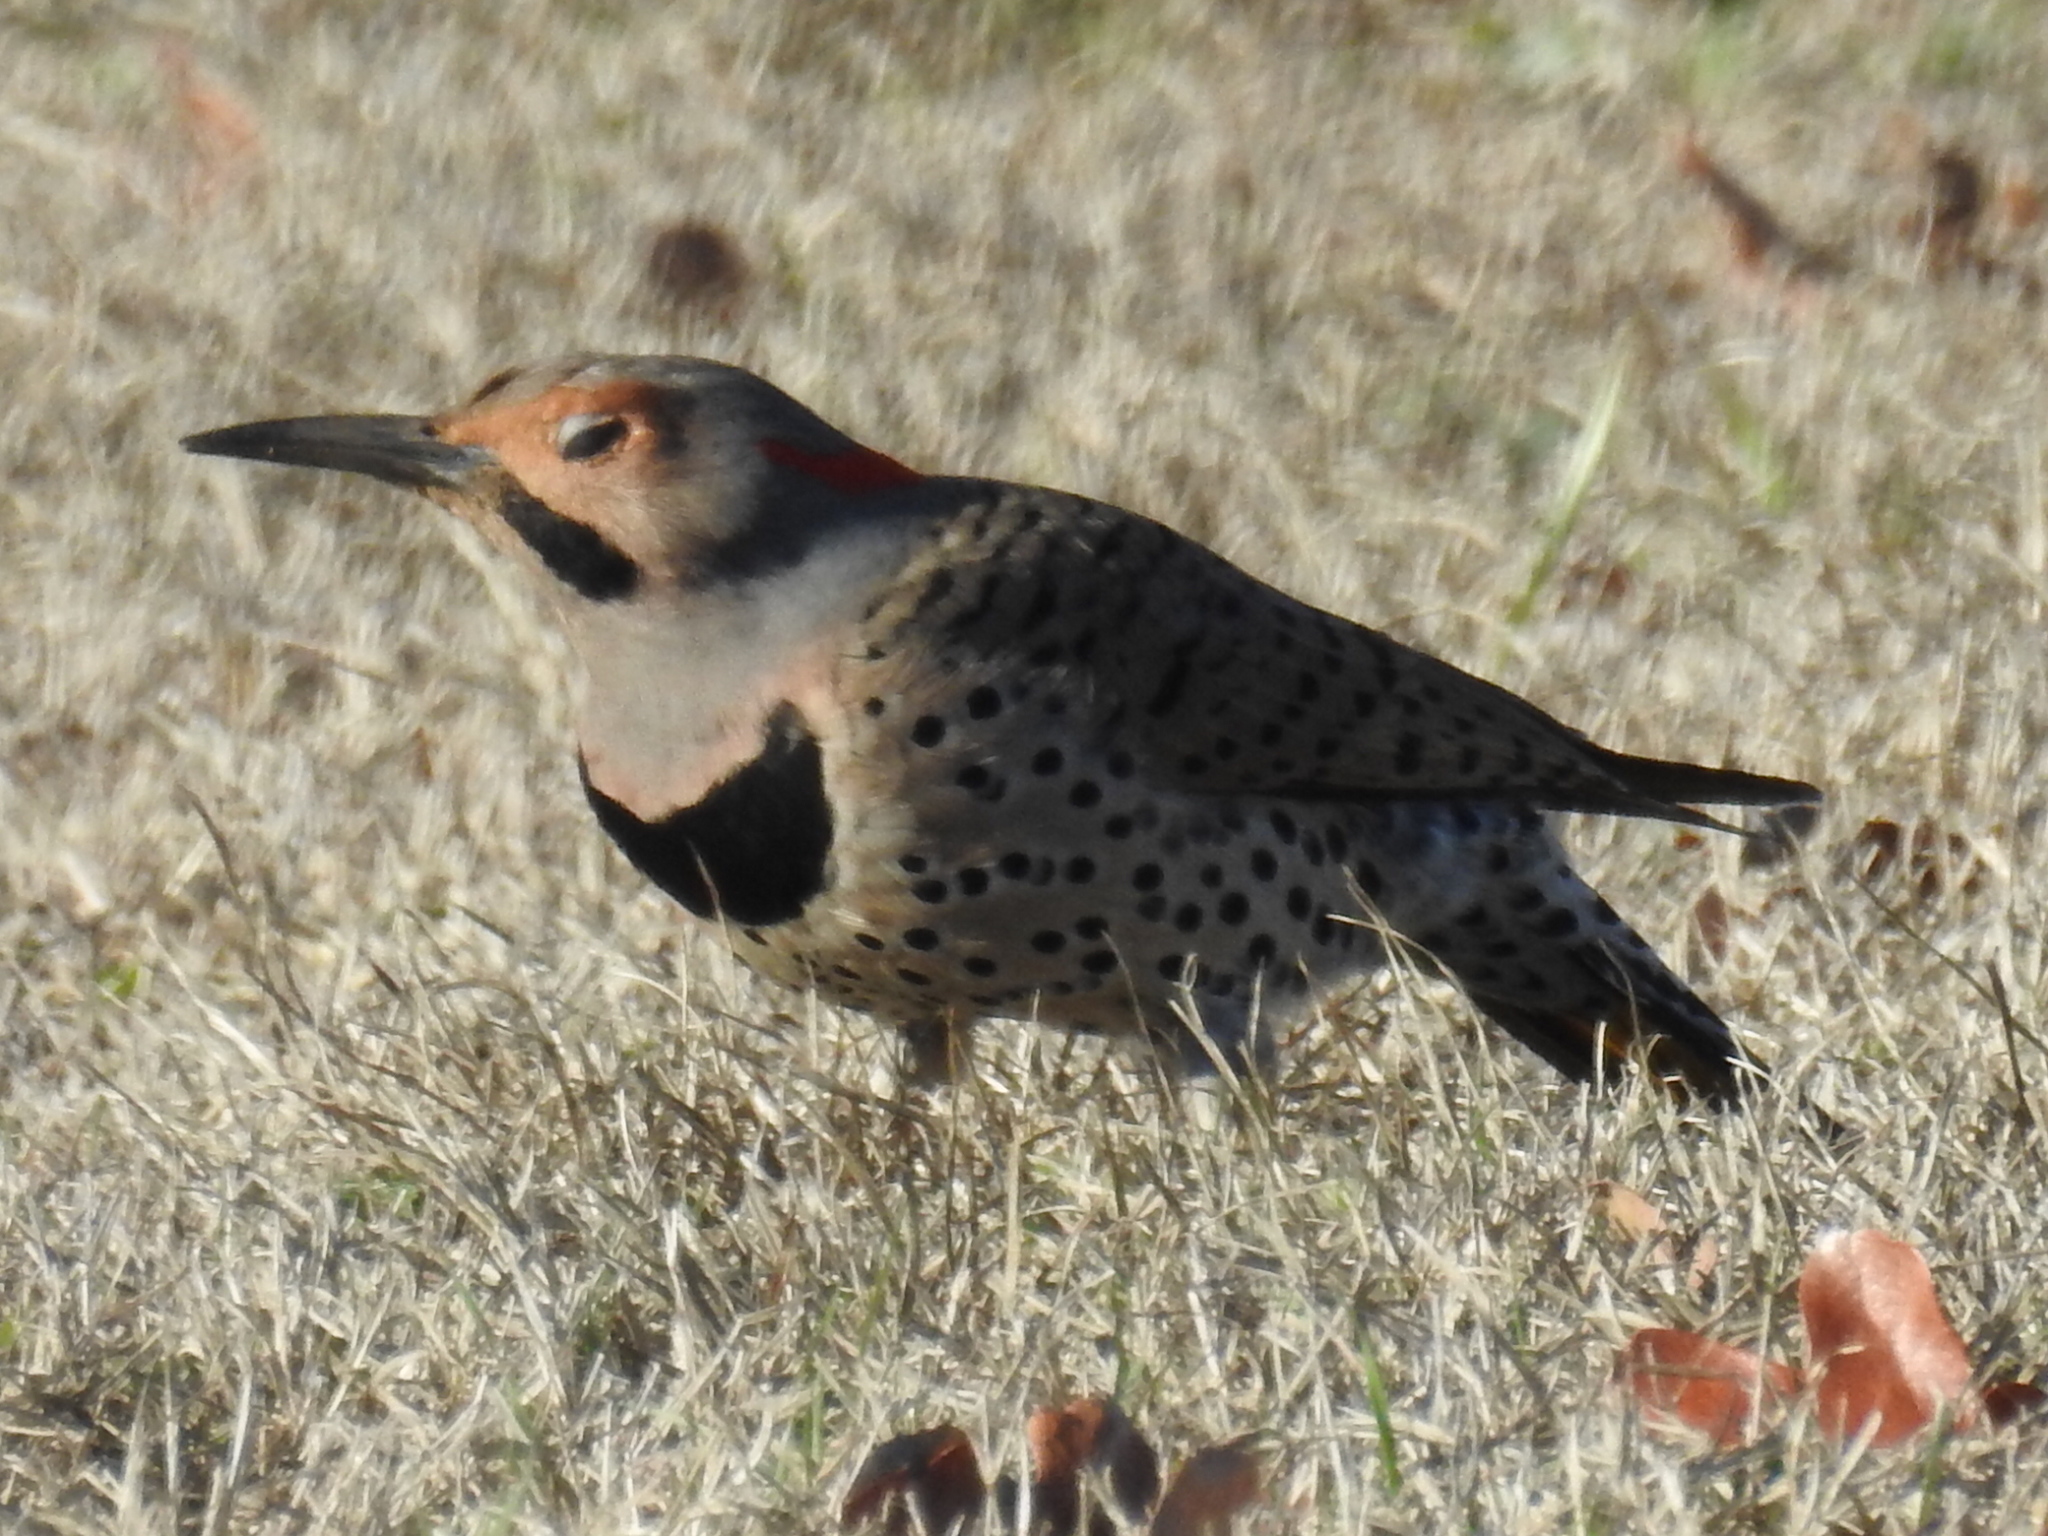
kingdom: Animalia
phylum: Chordata
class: Aves
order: Piciformes
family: Picidae
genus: Colaptes
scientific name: Colaptes auratus
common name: Northern flicker
